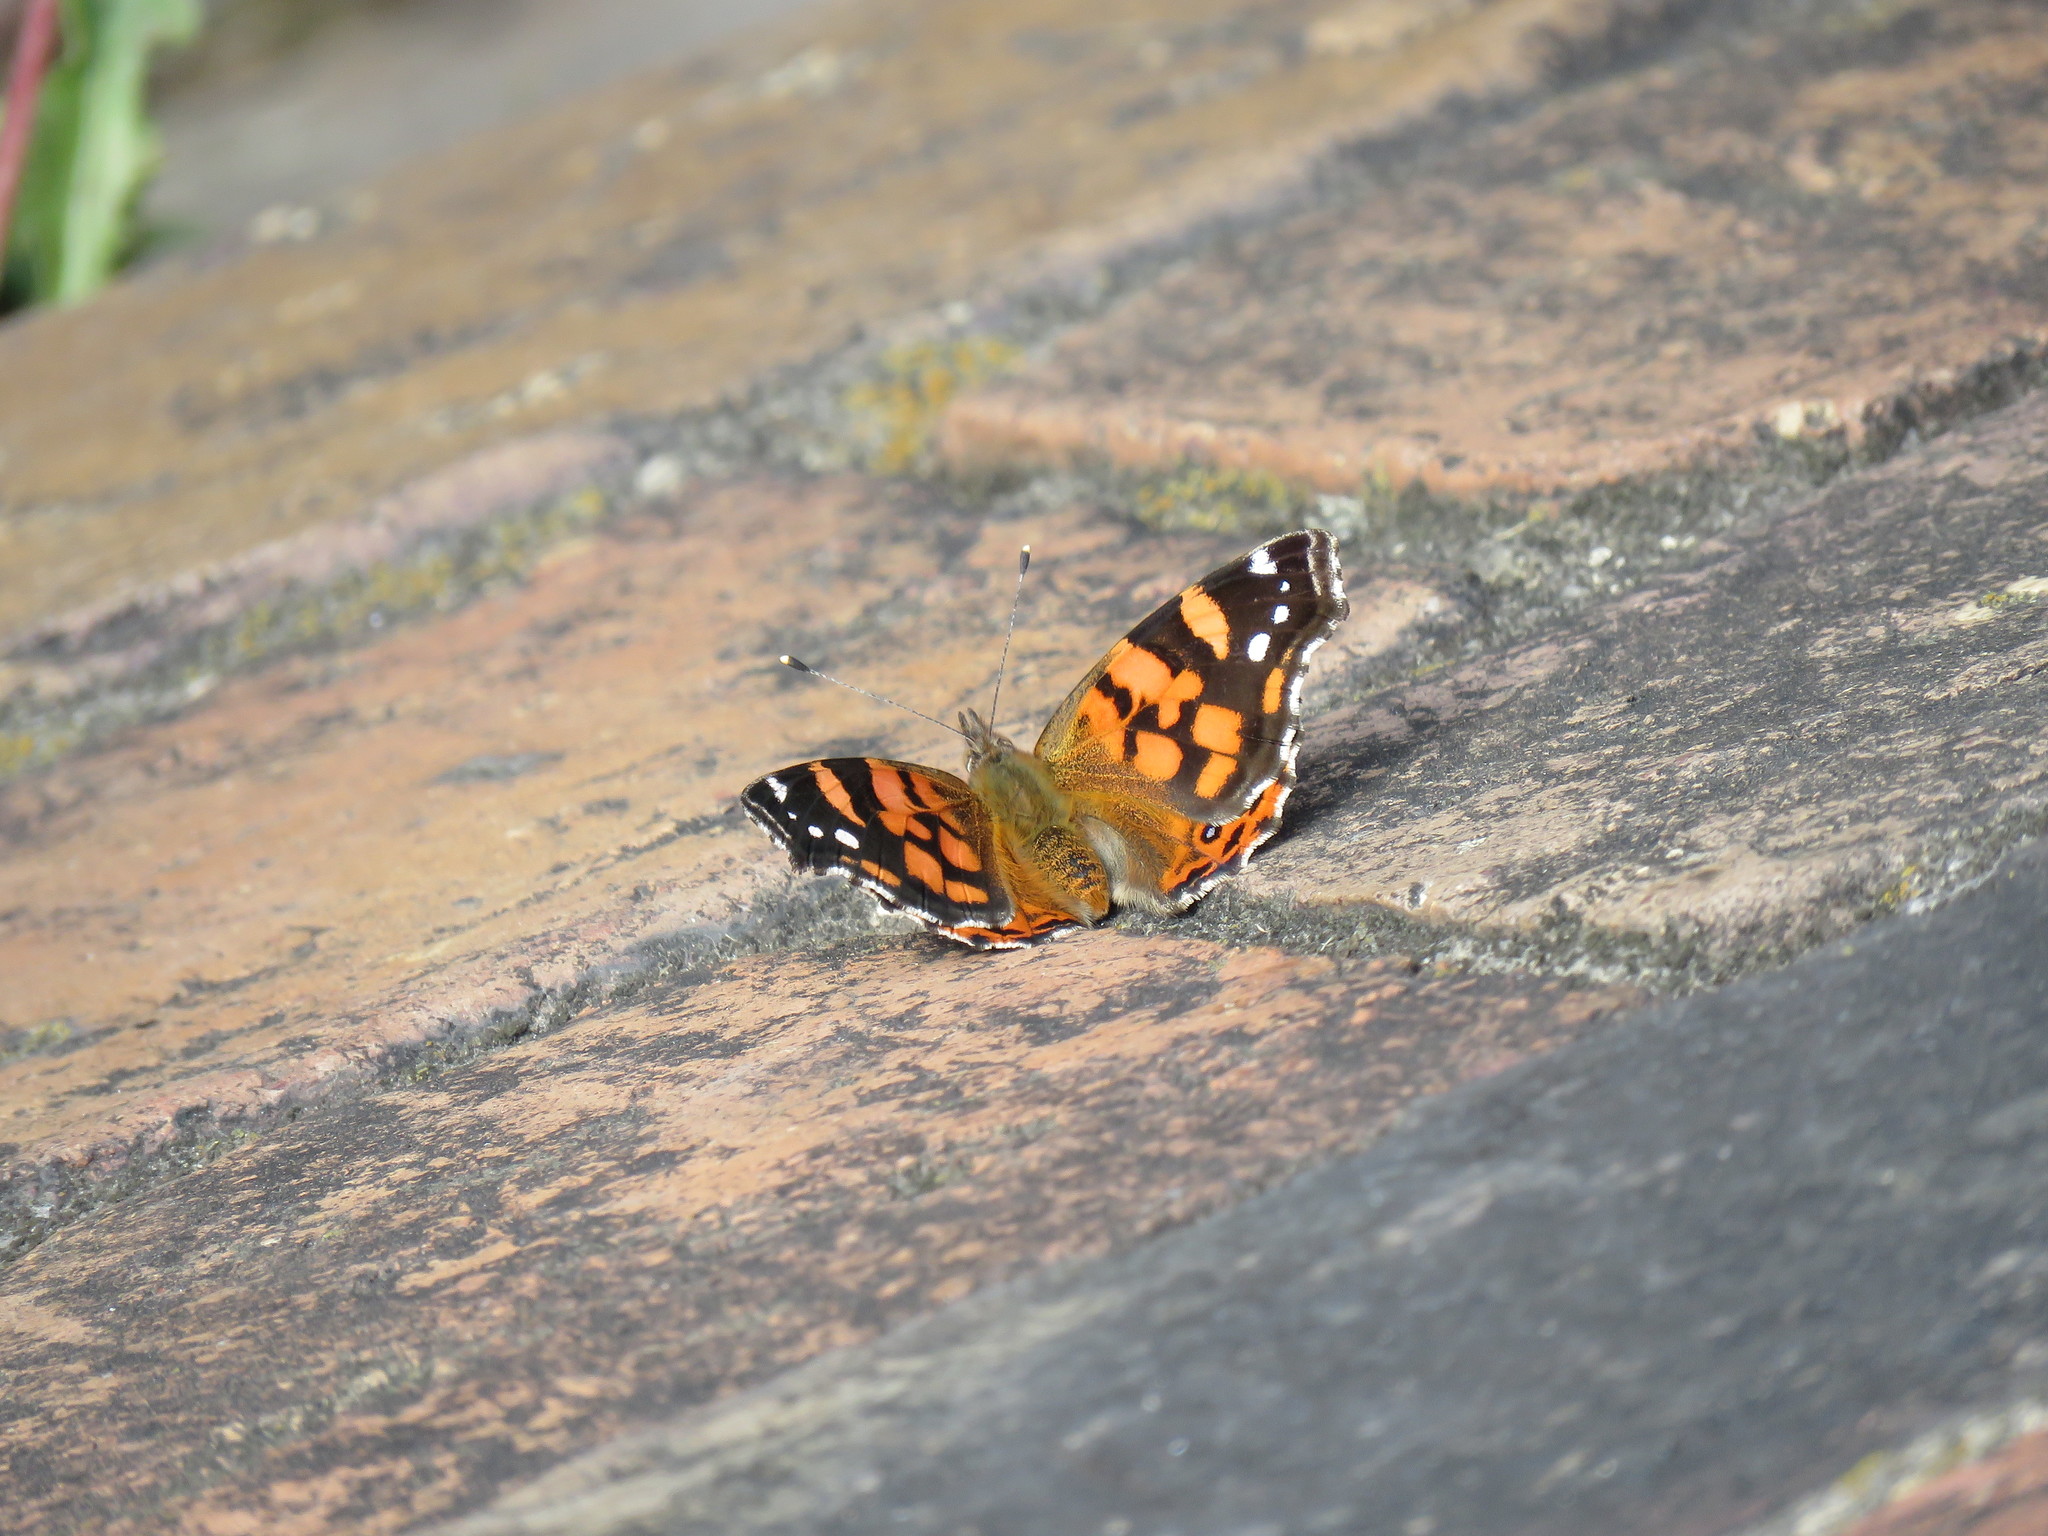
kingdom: Animalia
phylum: Arthropoda
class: Insecta
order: Lepidoptera
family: Nymphalidae
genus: Vanessa
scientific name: Vanessa carye
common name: Subtropical lady
